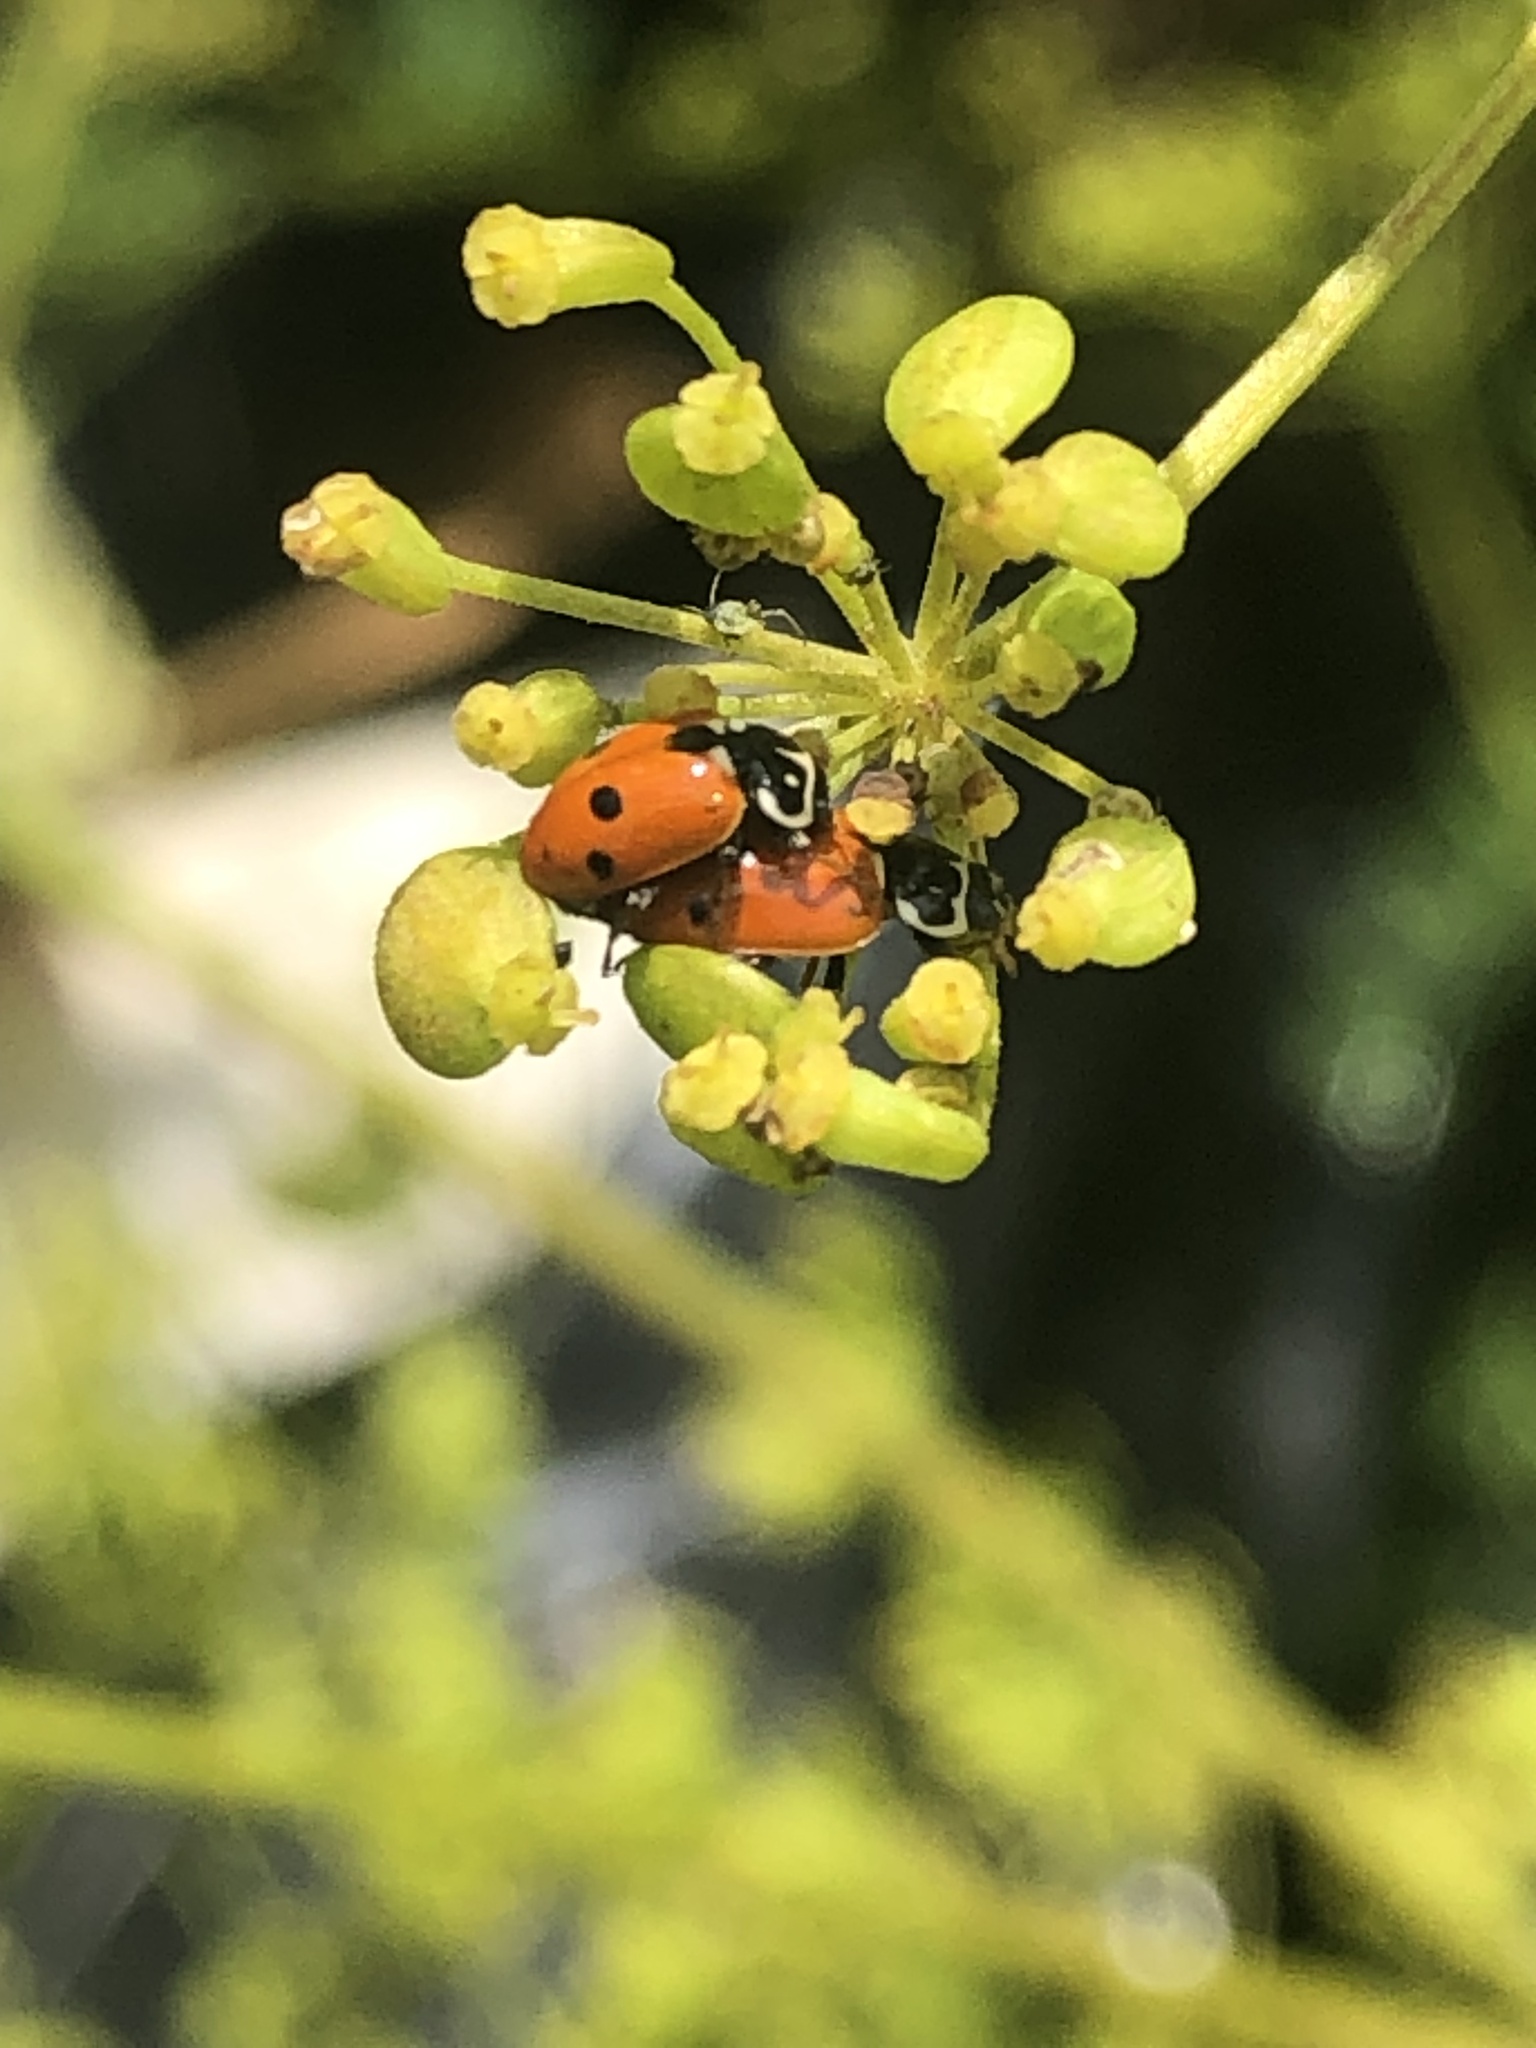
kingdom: Animalia
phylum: Arthropoda
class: Insecta
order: Coleoptera
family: Coccinellidae
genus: Hippodamia
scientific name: Hippodamia variegata
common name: Ladybird beetle
